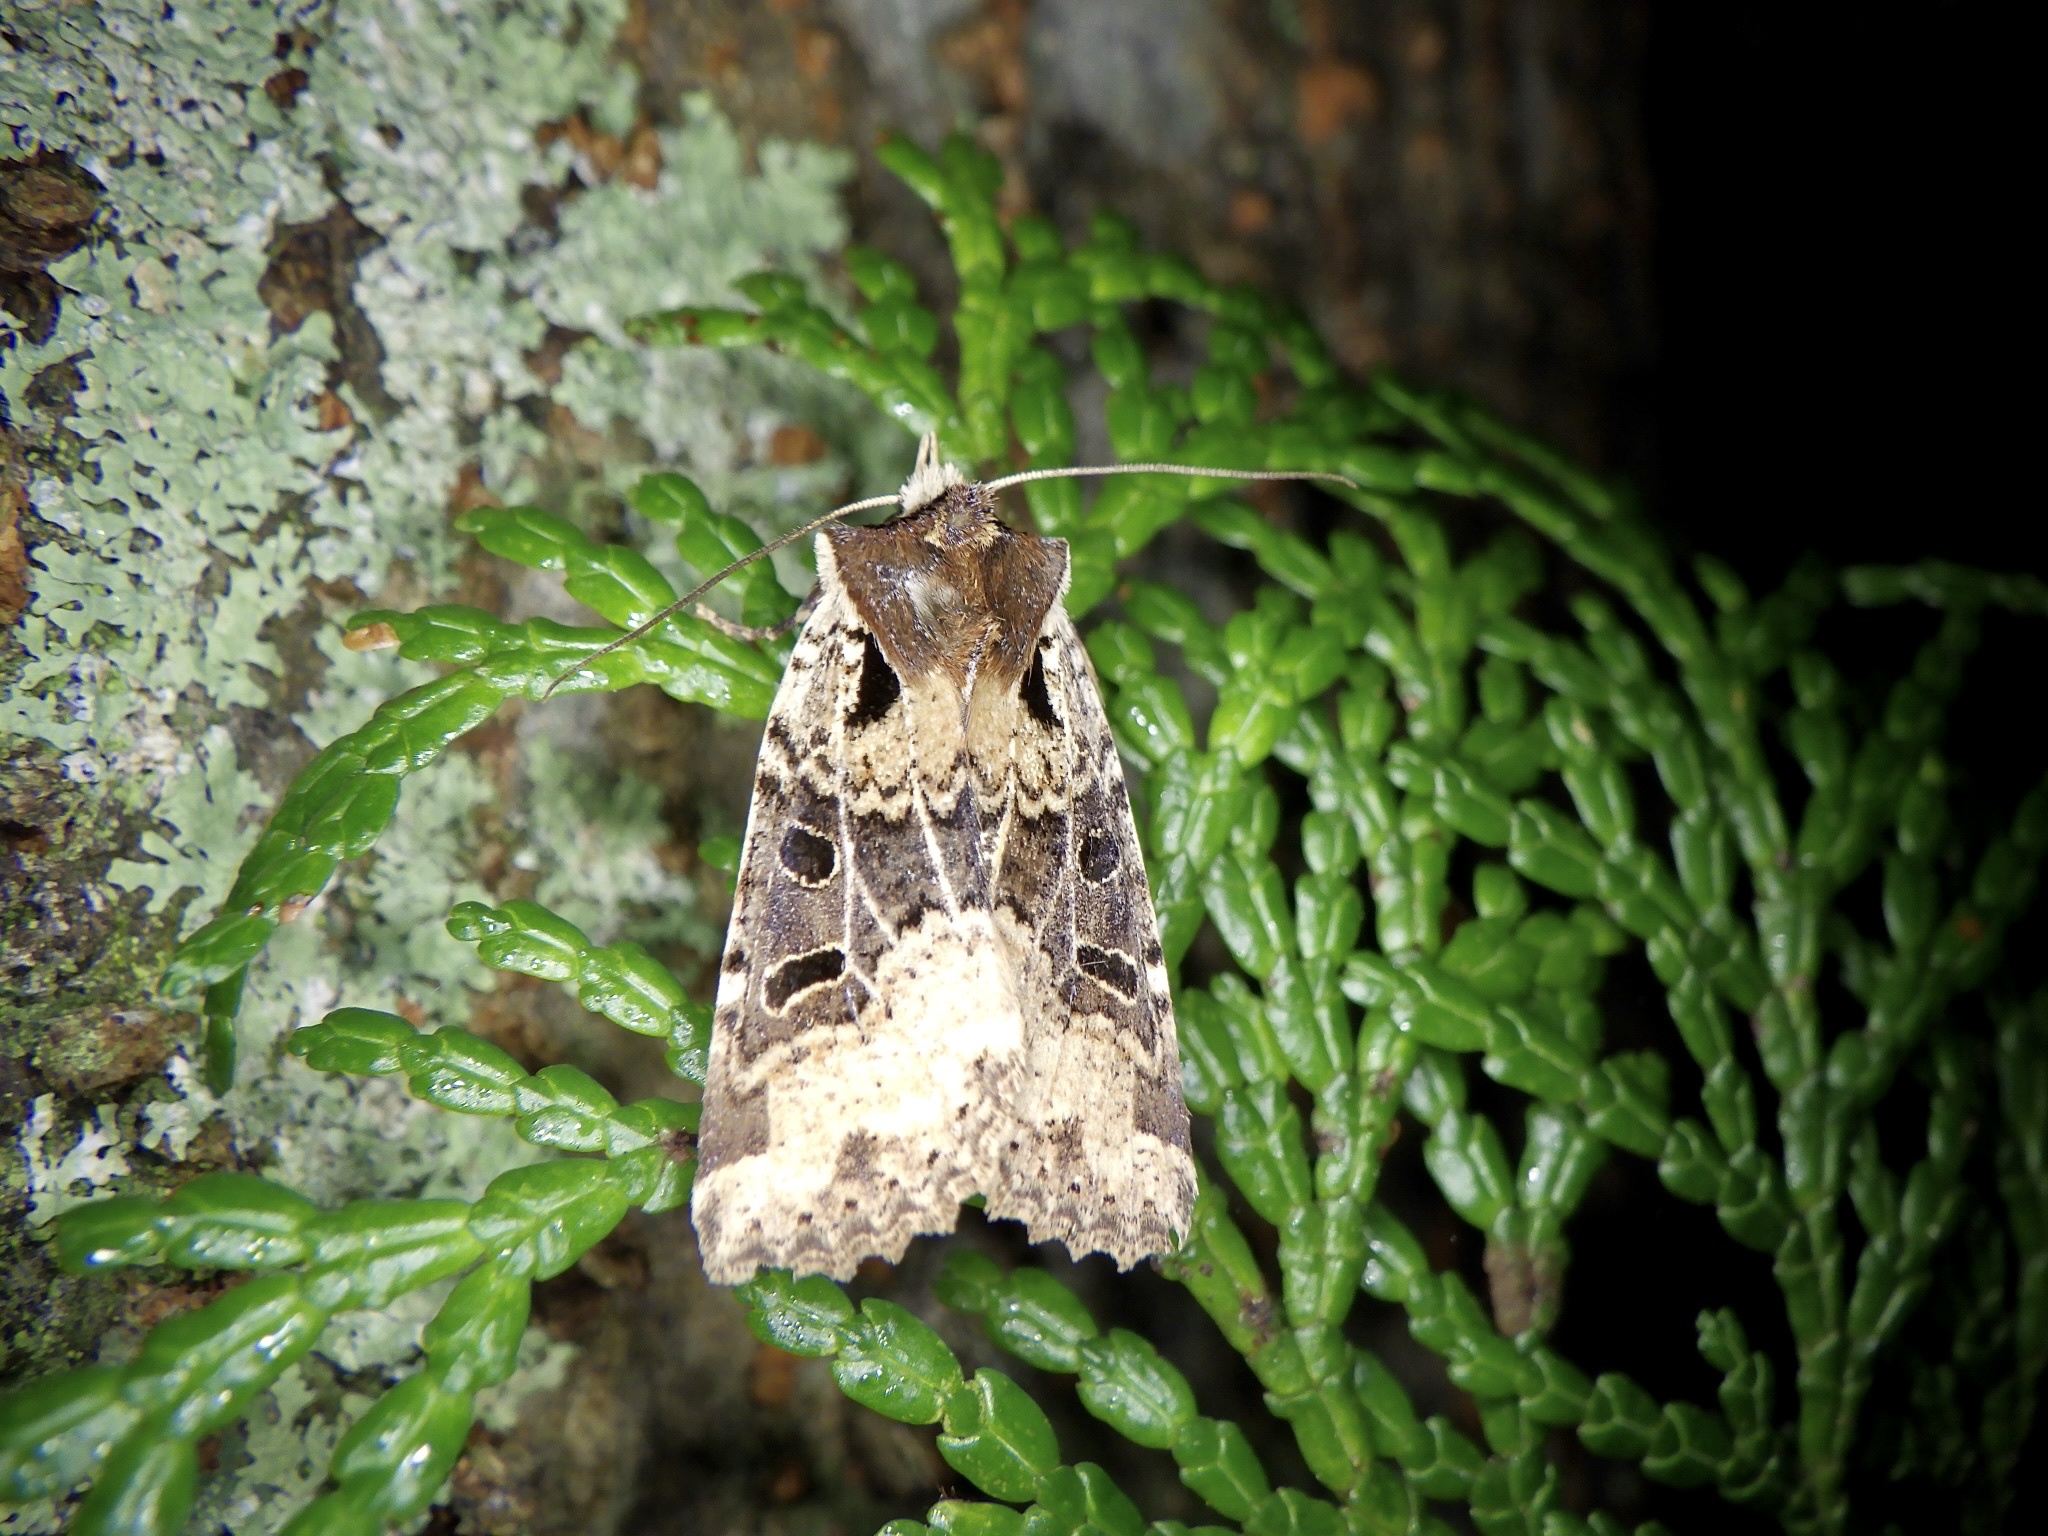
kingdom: Animalia
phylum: Arthropoda
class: Insecta
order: Lepidoptera
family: Noctuidae
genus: Rhynchaglaea
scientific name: Rhynchaglaea scitula
